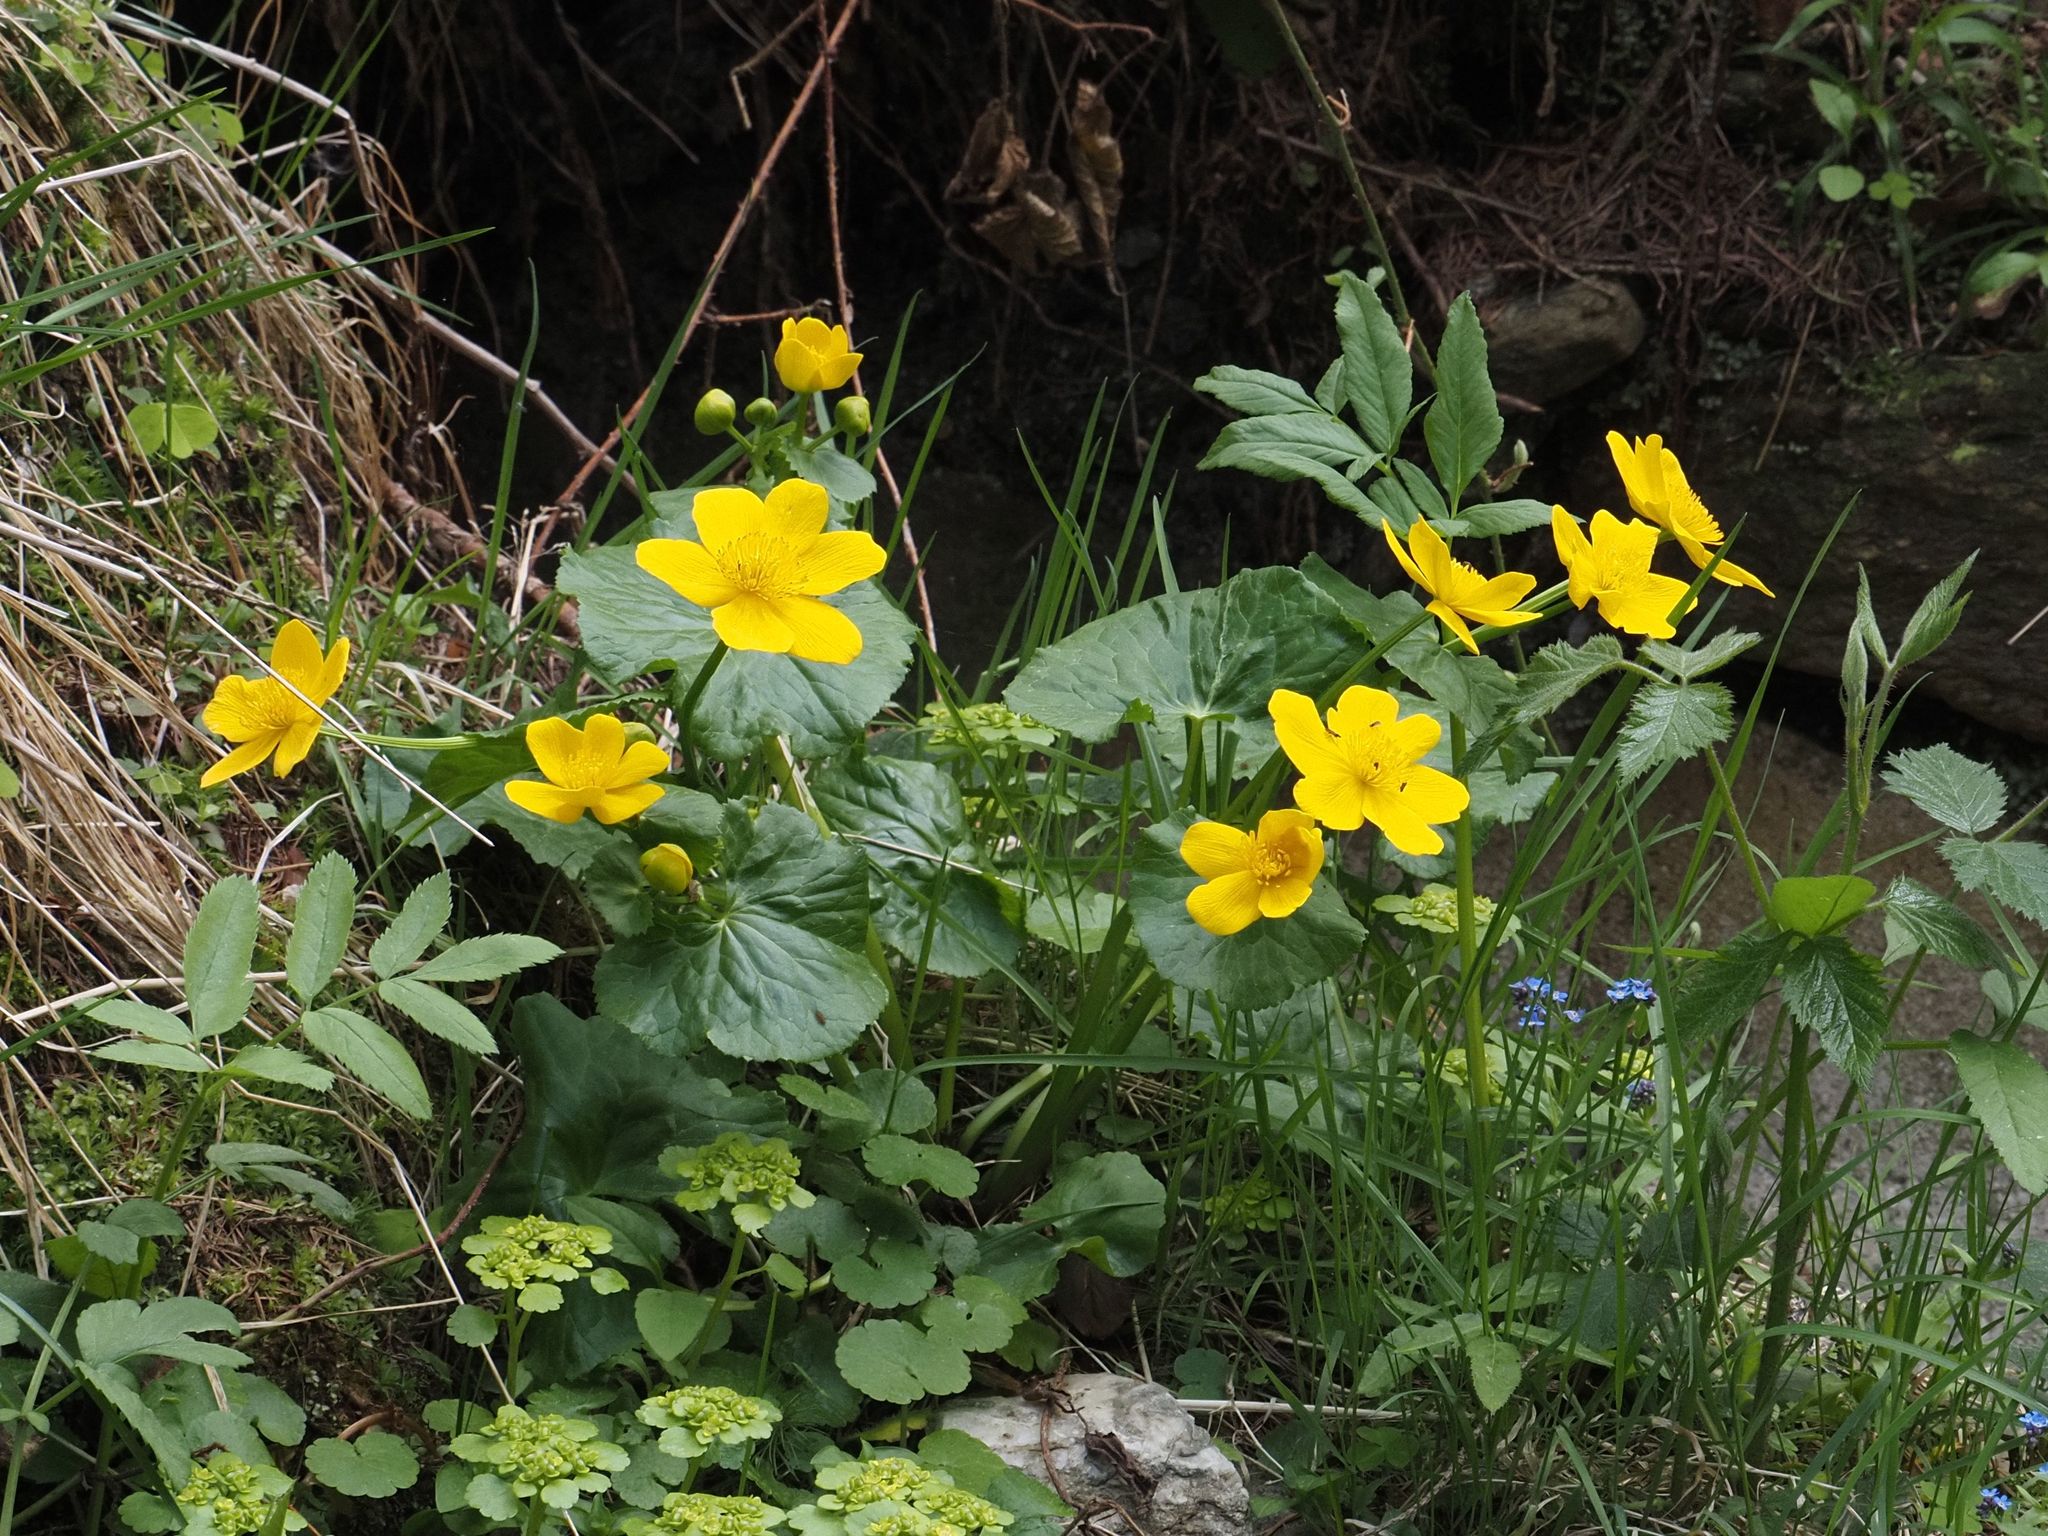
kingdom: Plantae
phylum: Tracheophyta
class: Magnoliopsida
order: Ranunculales
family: Ranunculaceae
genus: Caltha
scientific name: Caltha palustris
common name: Marsh marigold
